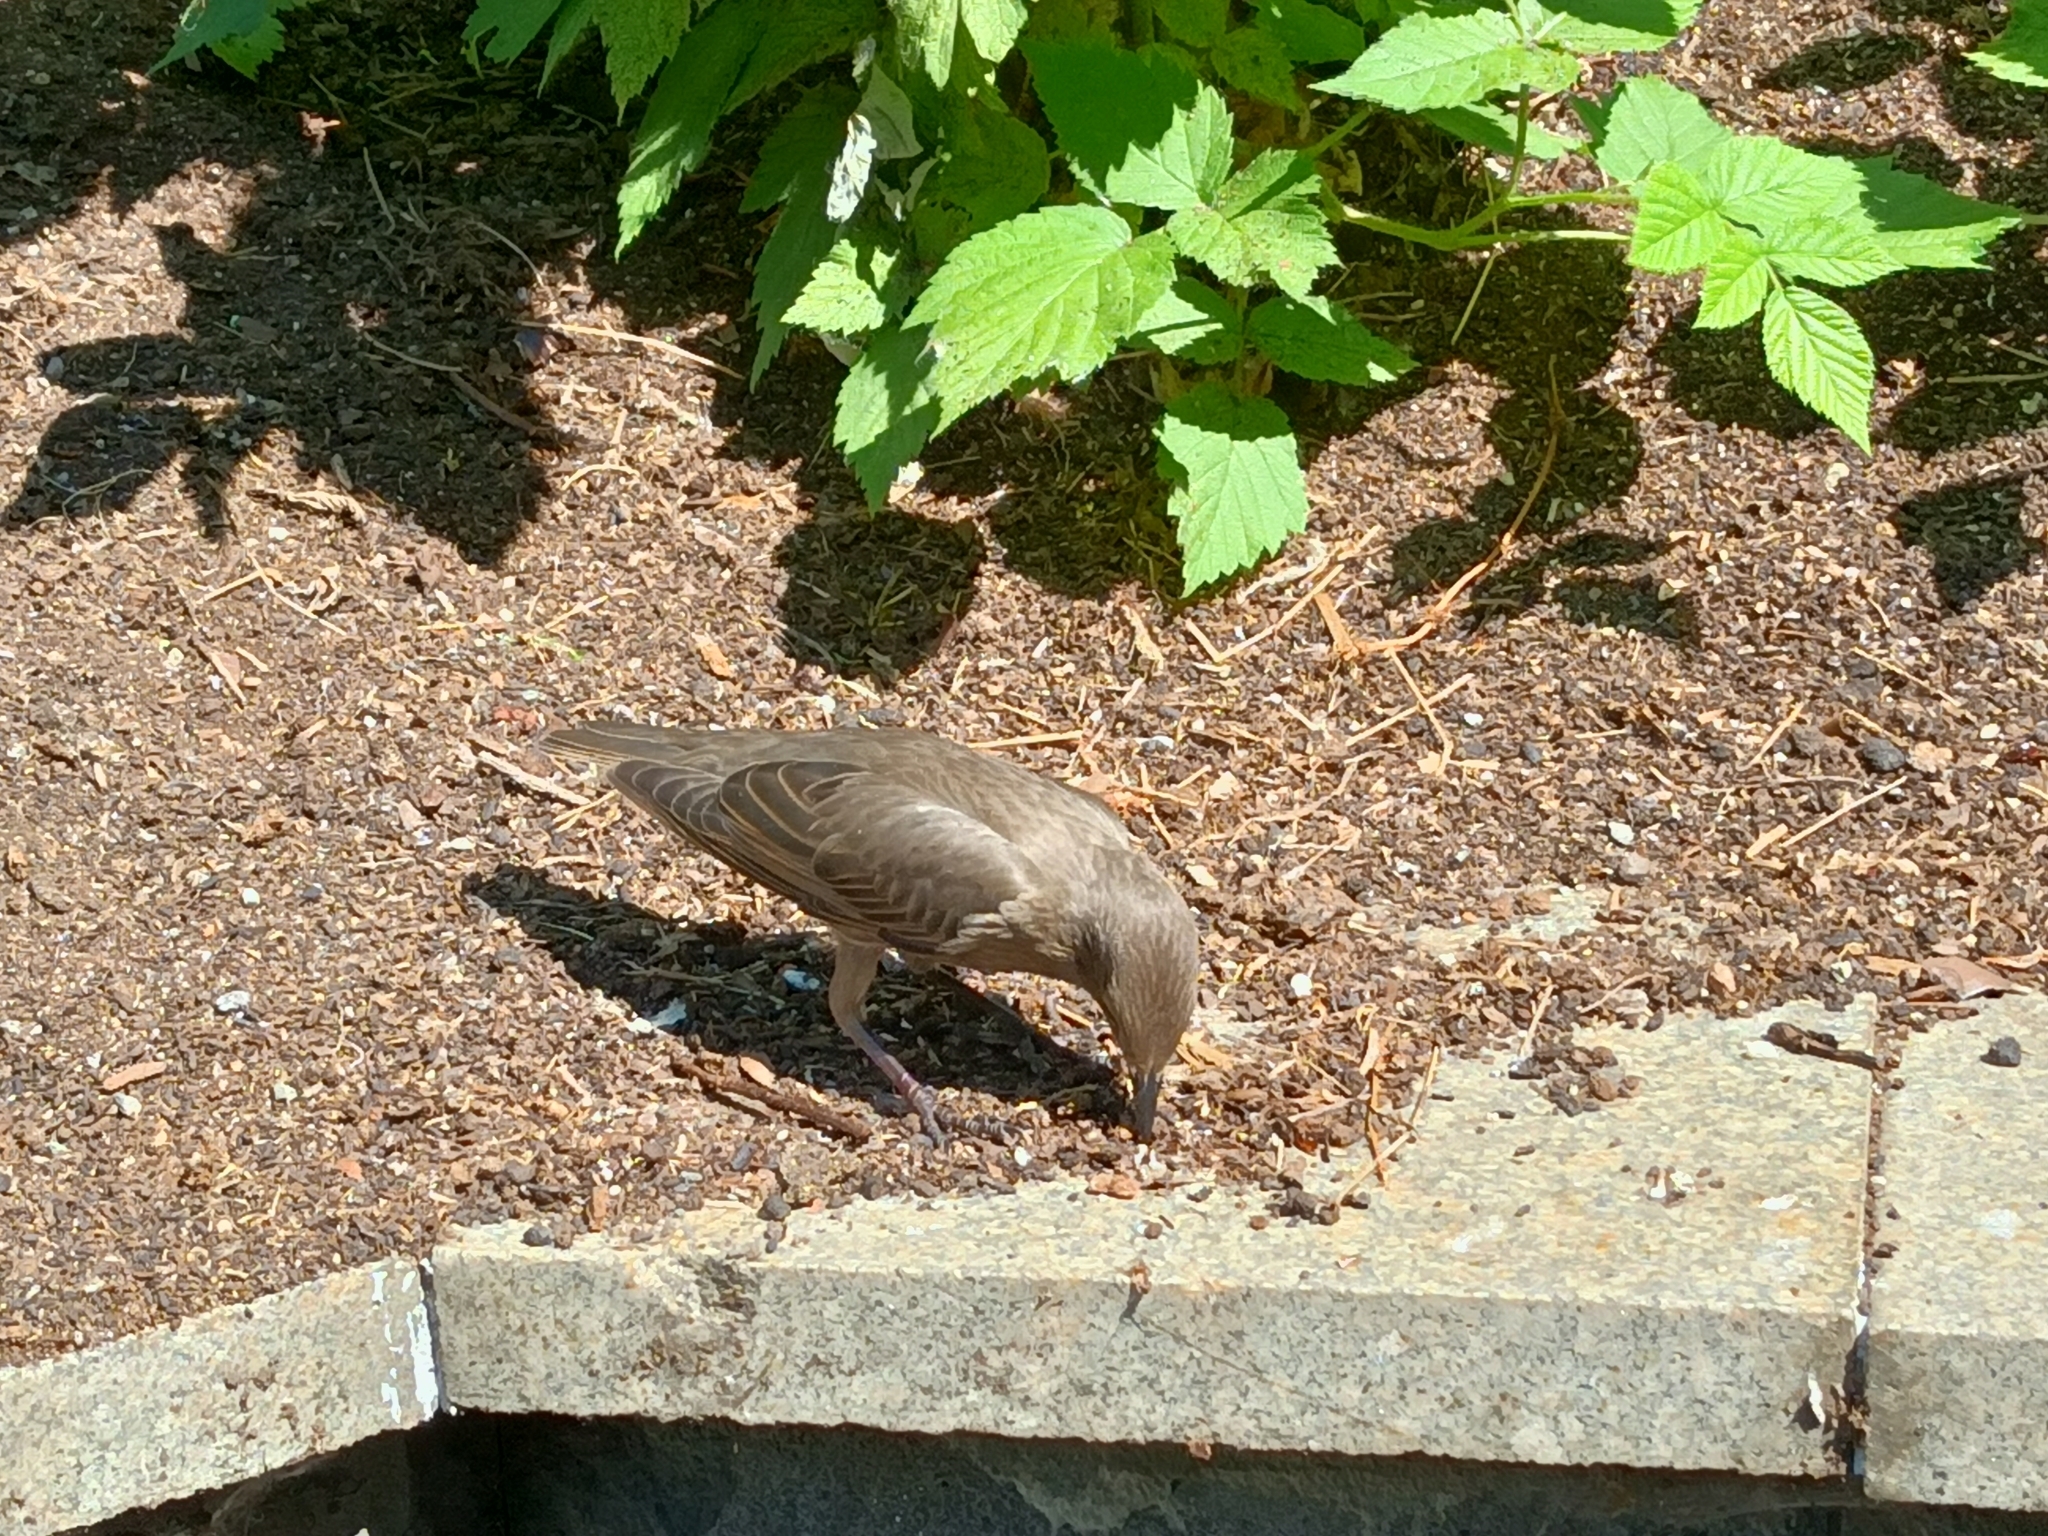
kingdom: Animalia
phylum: Chordata
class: Aves
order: Passeriformes
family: Sturnidae
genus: Sturnus
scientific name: Sturnus vulgaris
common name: Common starling
